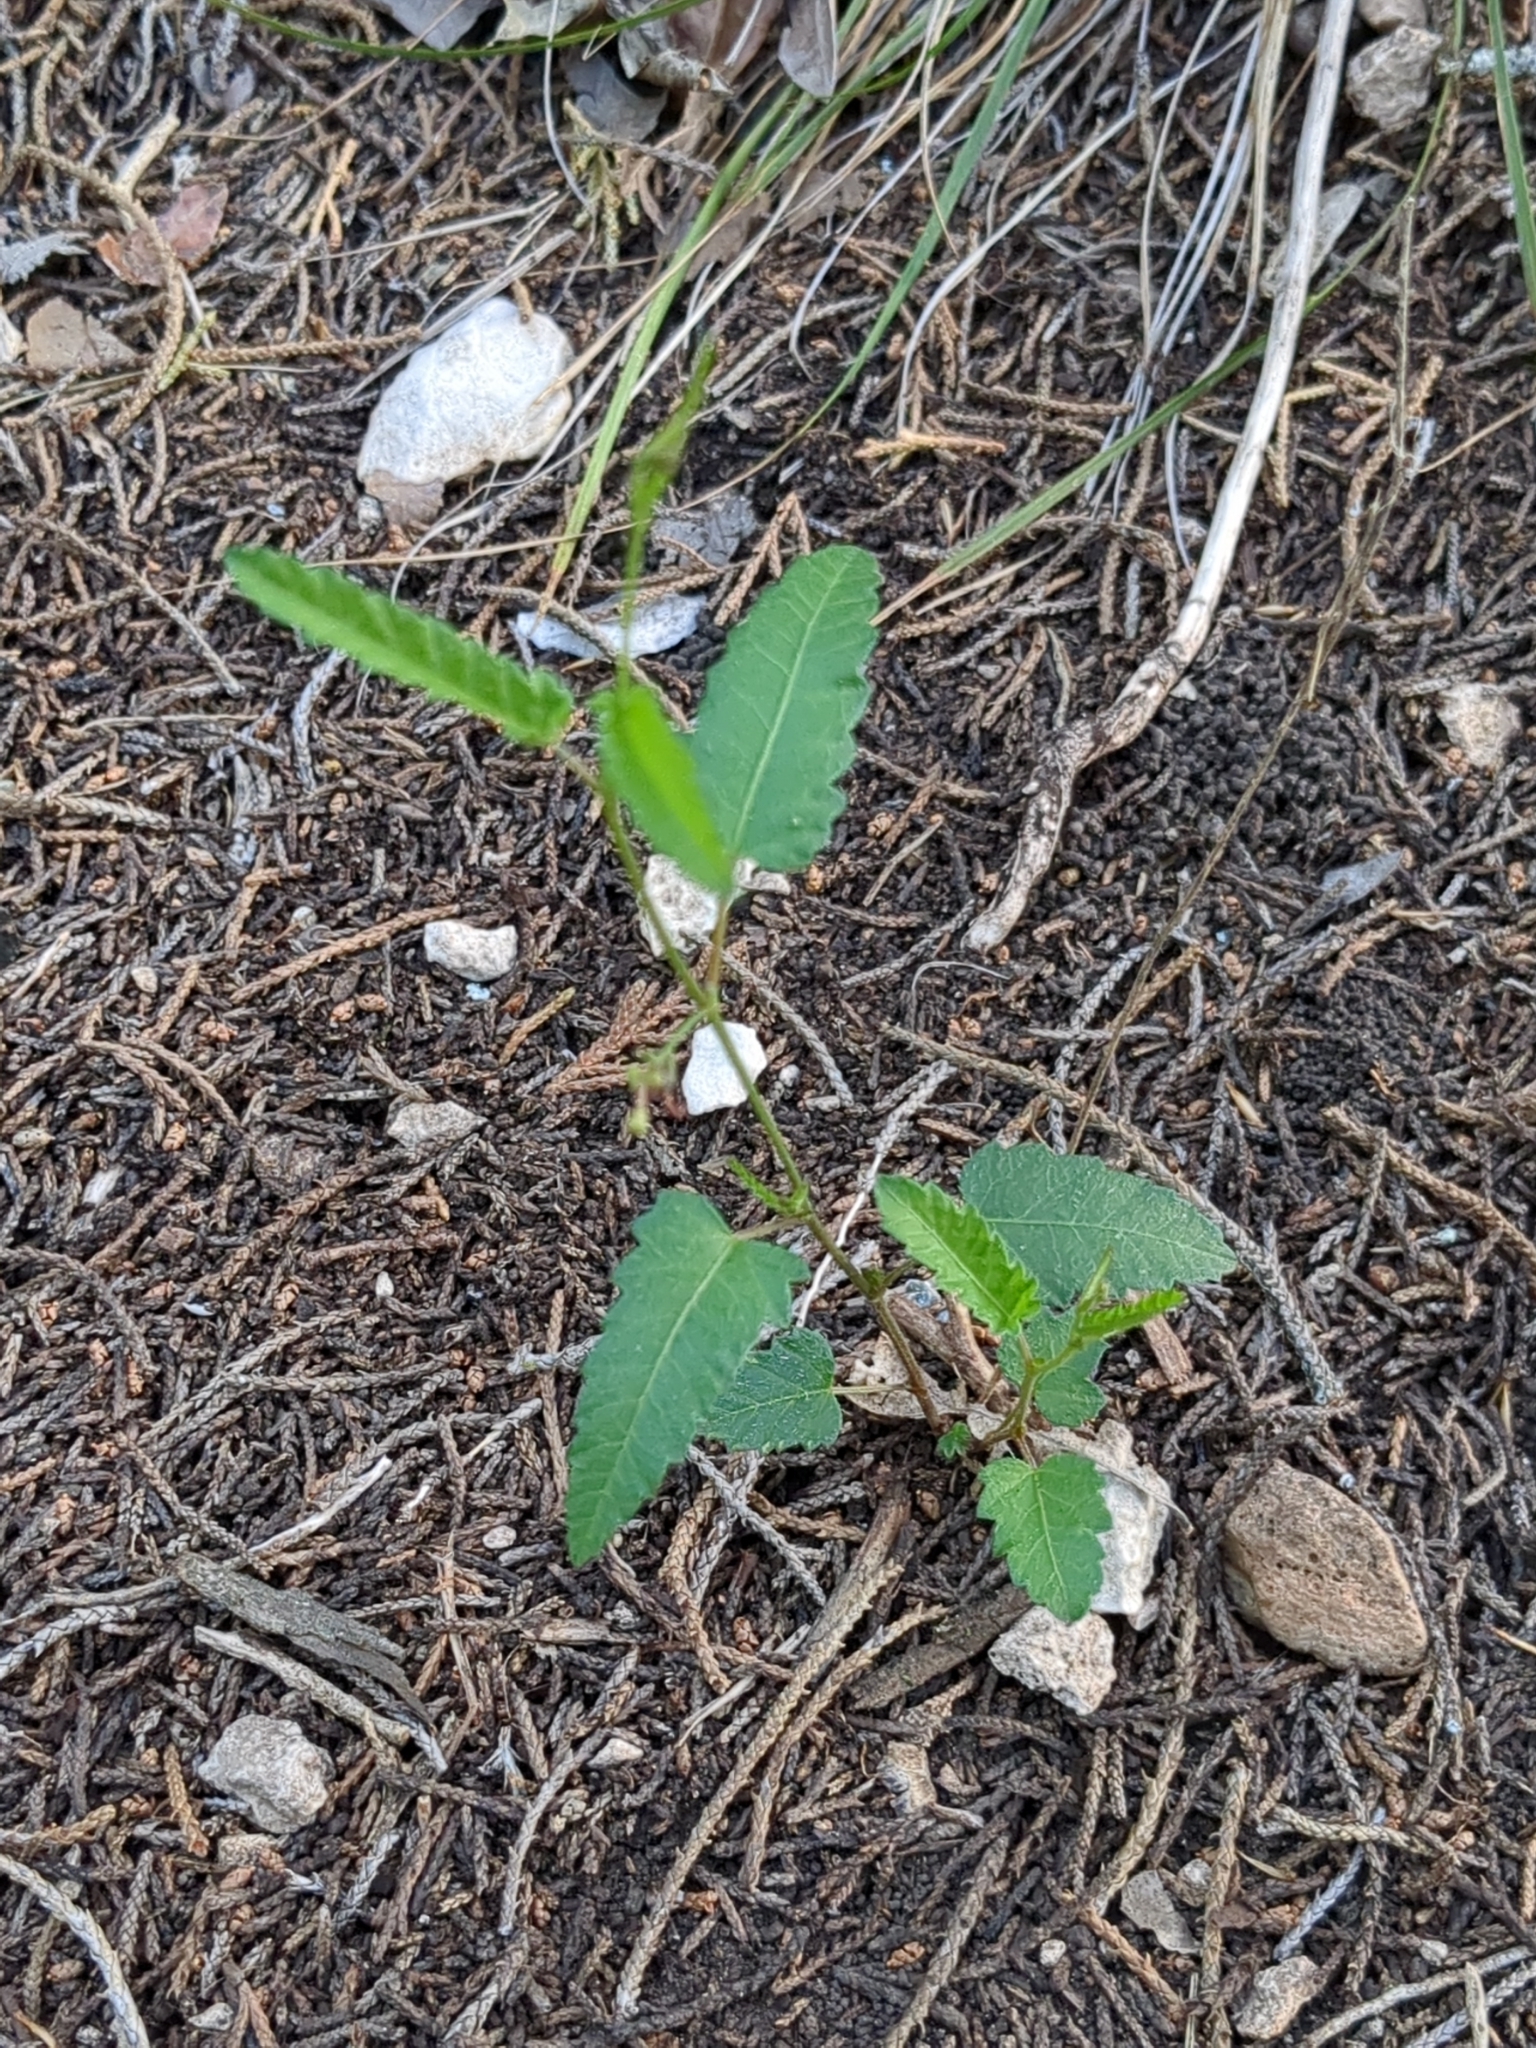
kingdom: Plantae
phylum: Tracheophyta
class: Magnoliopsida
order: Malpighiales
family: Euphorbiaceae
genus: Tragia
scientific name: Tragia ramosa
